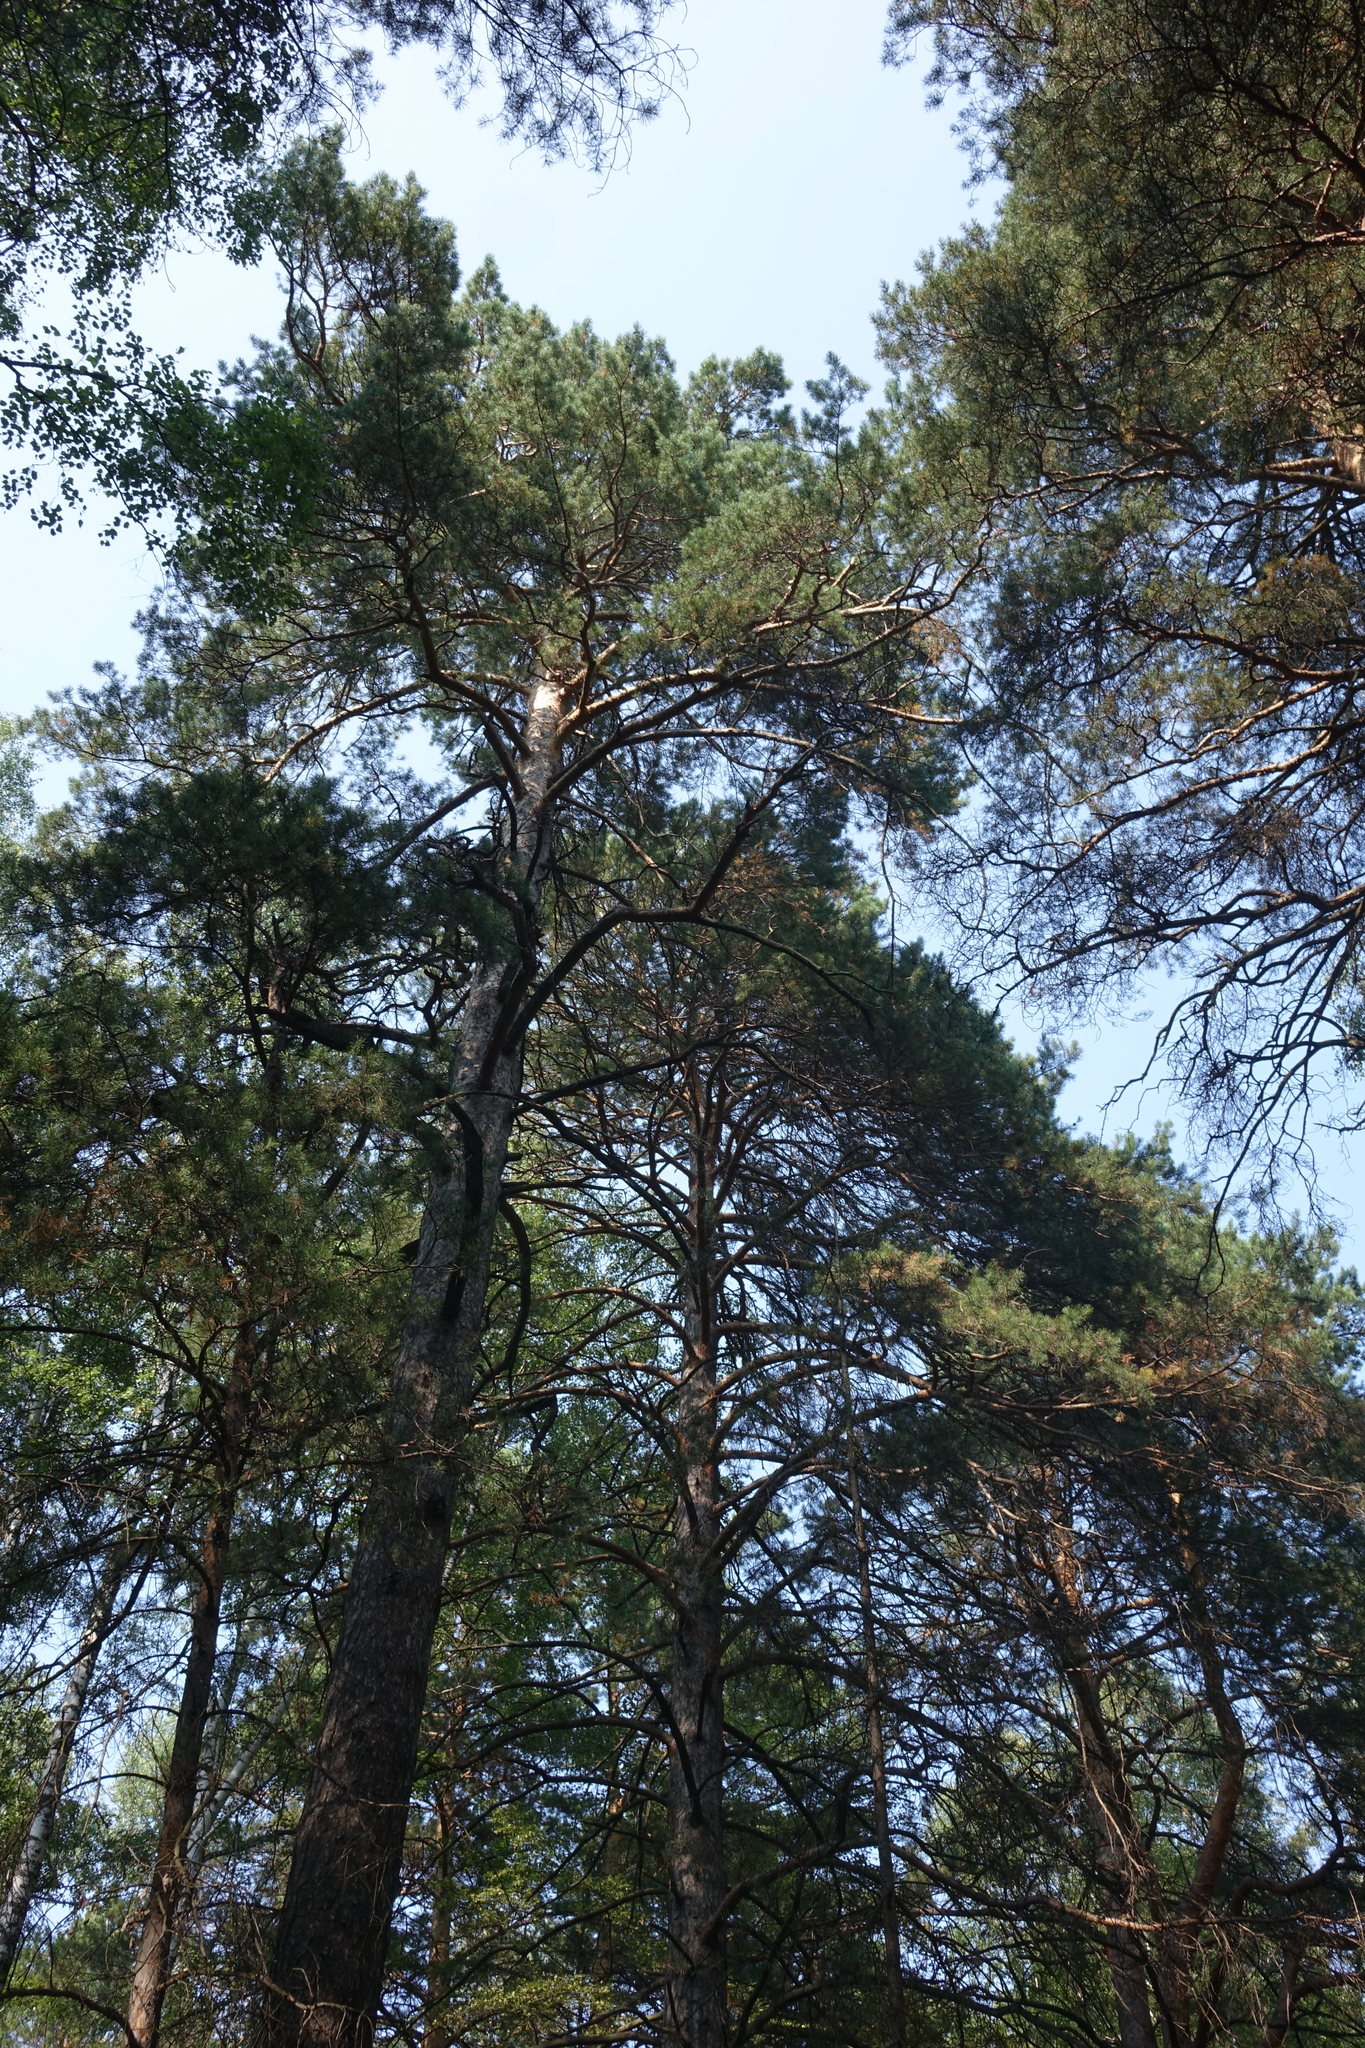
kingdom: Plantae
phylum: Tracheophyta
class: Pinopsida
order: Pinales
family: Pinaceae
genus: Pinus
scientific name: Pinus sylvestris
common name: Scots pine
